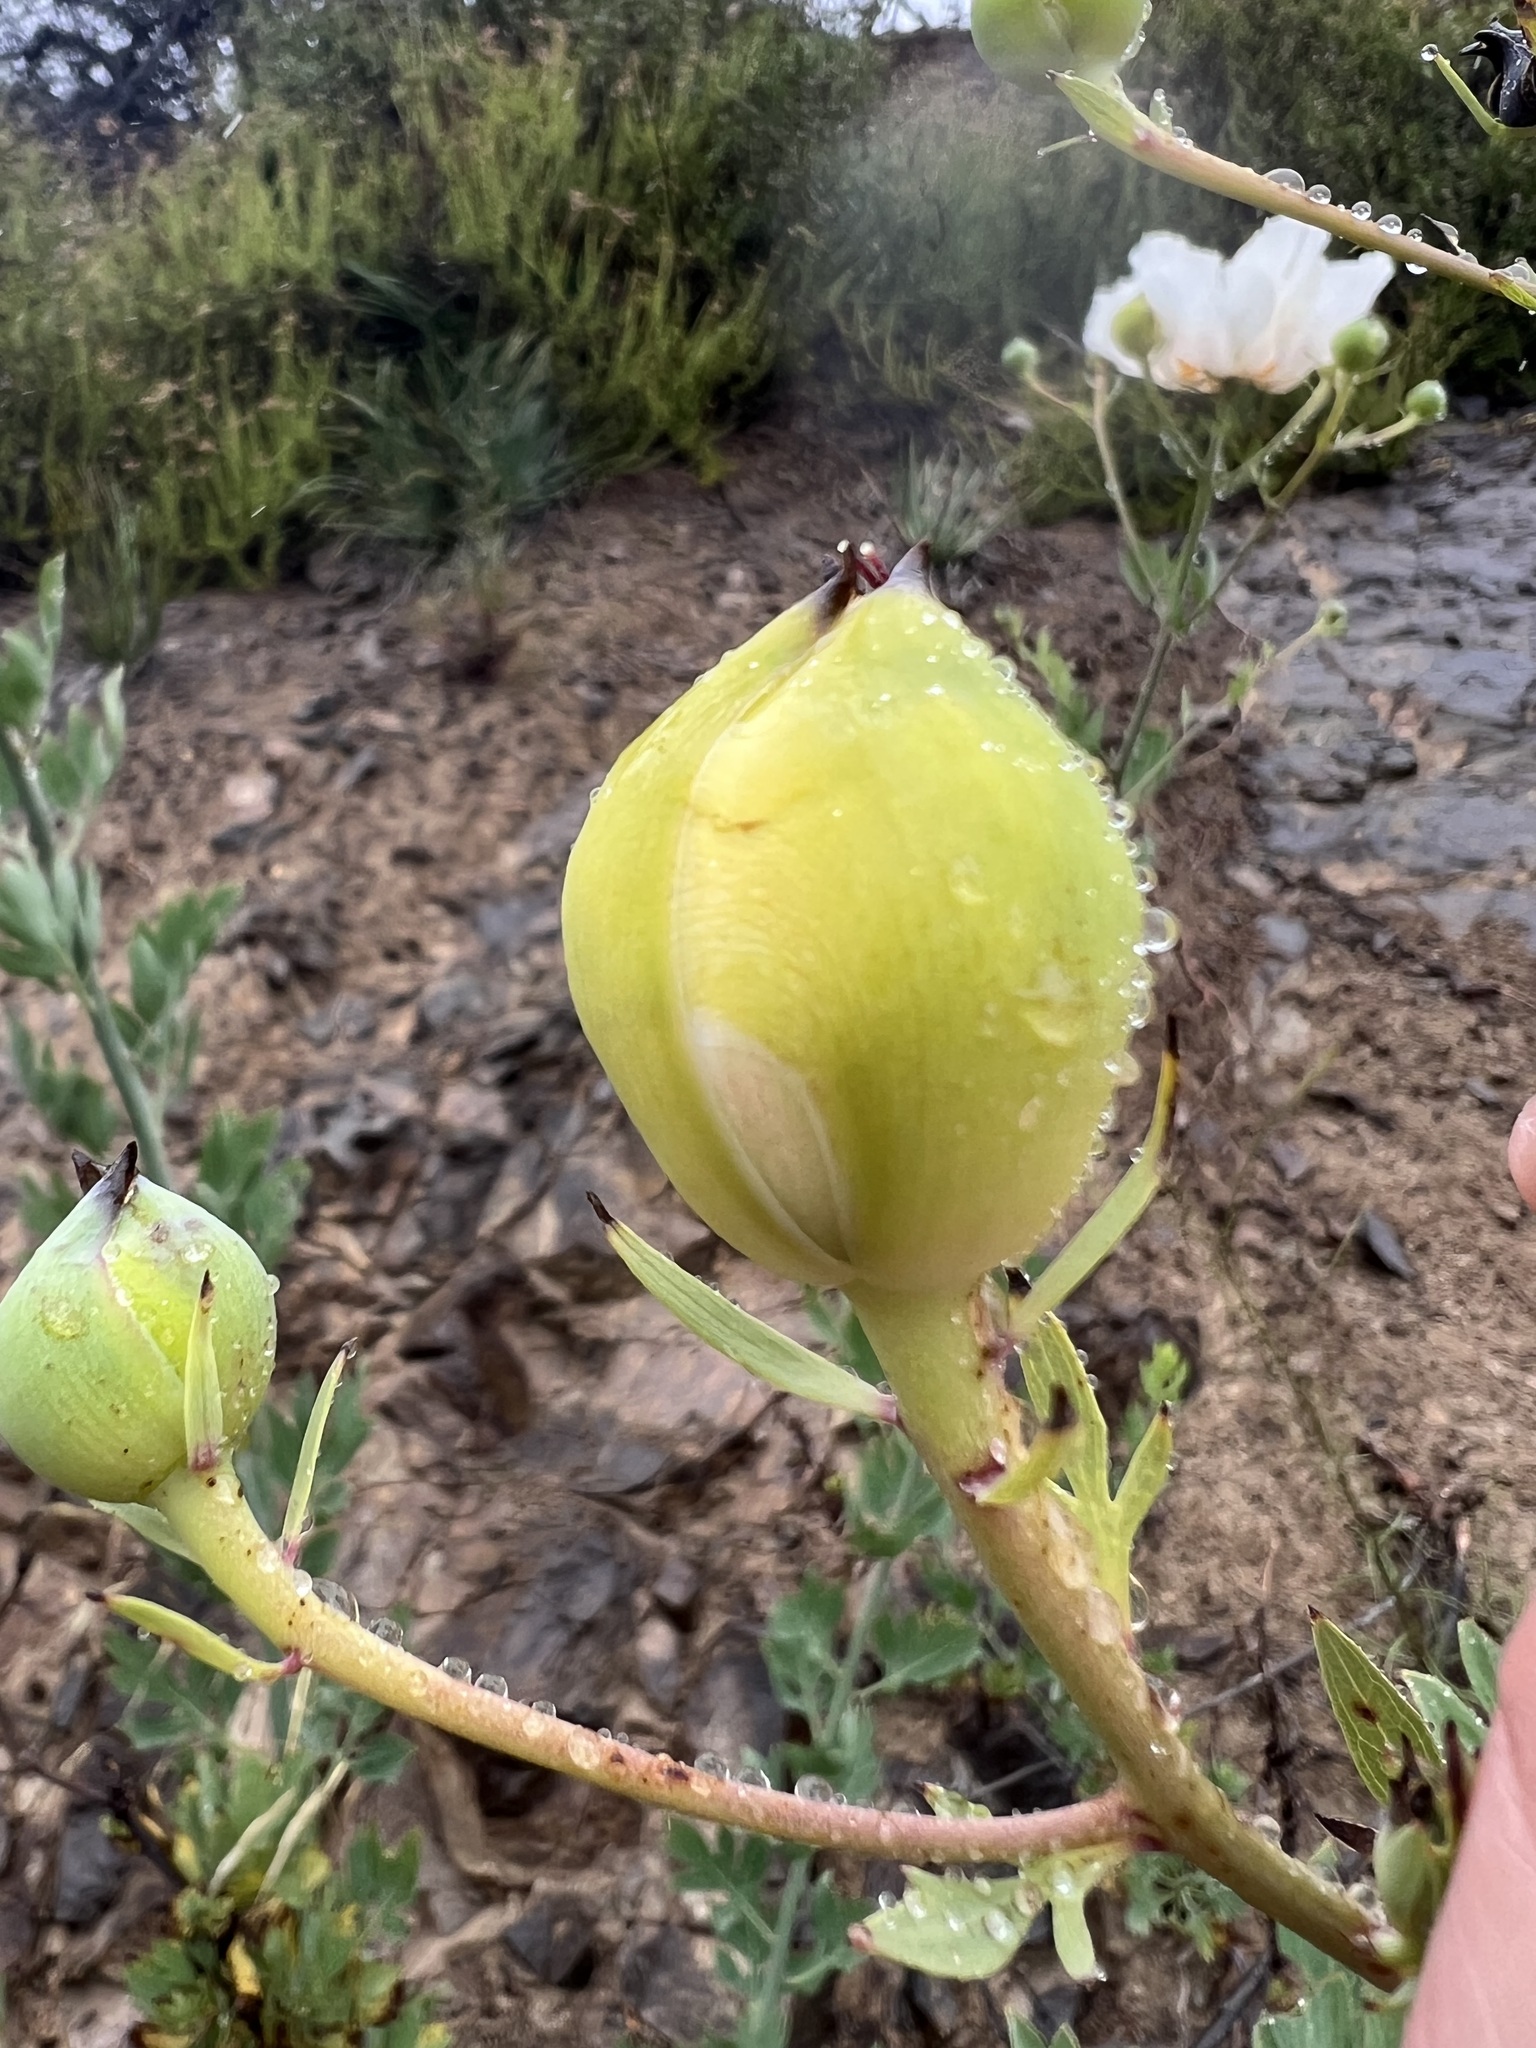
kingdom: Plantae
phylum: Tracheophyta
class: Magnoliopsida
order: Ranunculales
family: Papaveraceae
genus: Romneya
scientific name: Romneya coulteri
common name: California tree-poppy
